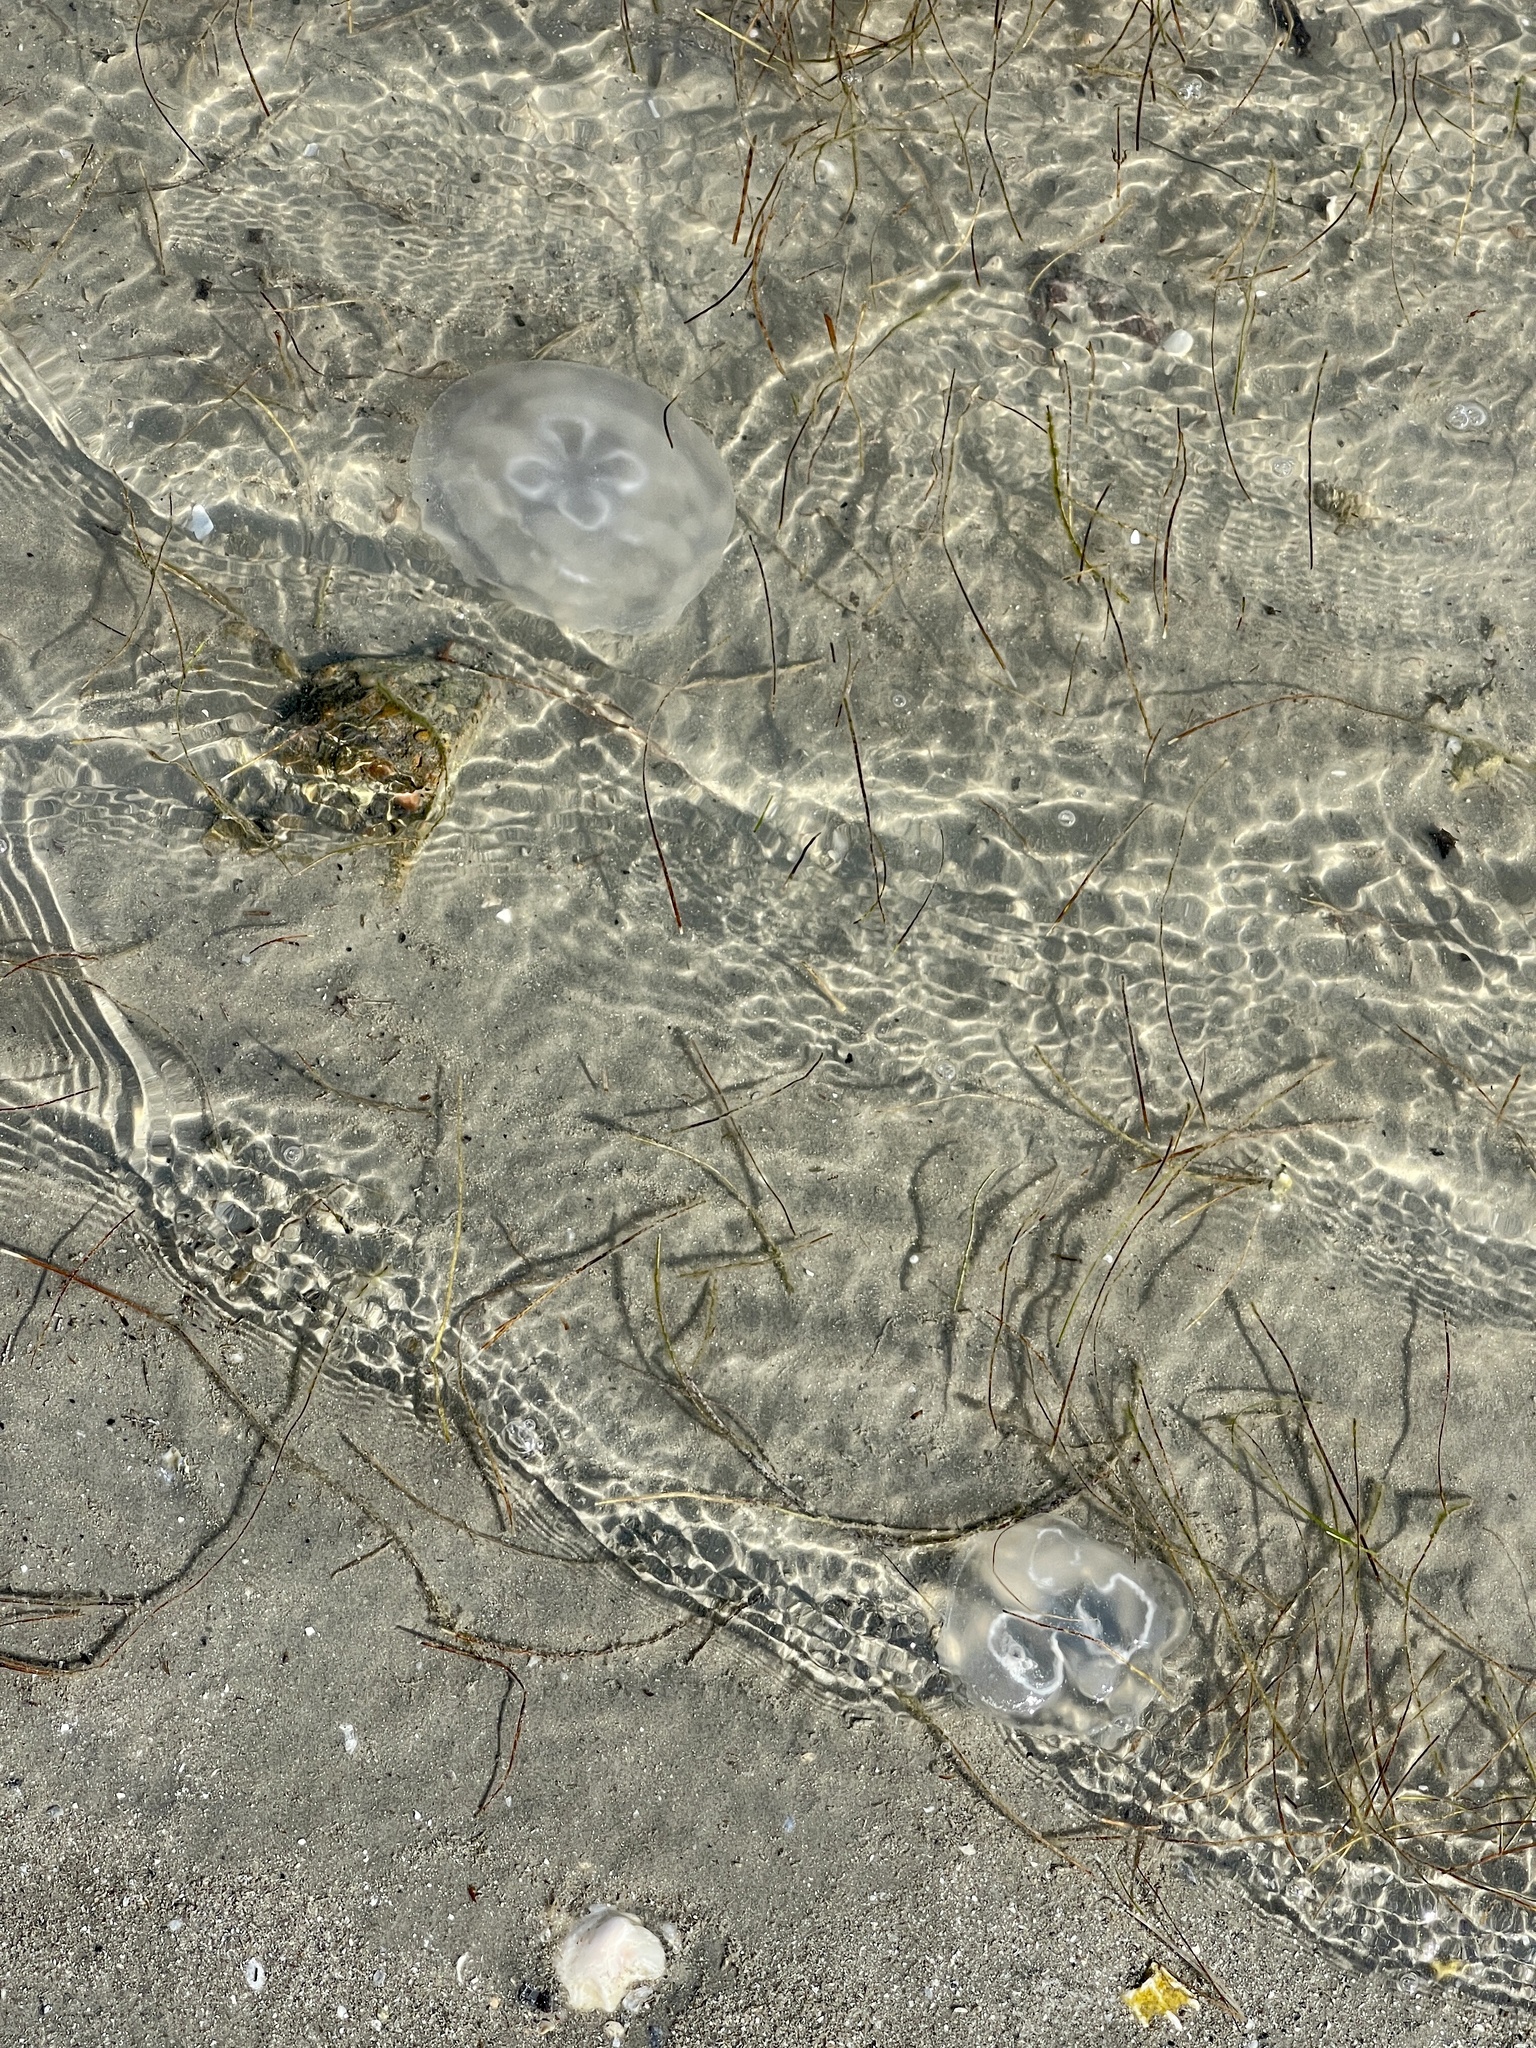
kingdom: Animalia
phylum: Cnidaria
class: Scyphozoa
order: Semaeostomeae
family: Ulmaridae
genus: Aurelia
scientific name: Aurelia marginalis
